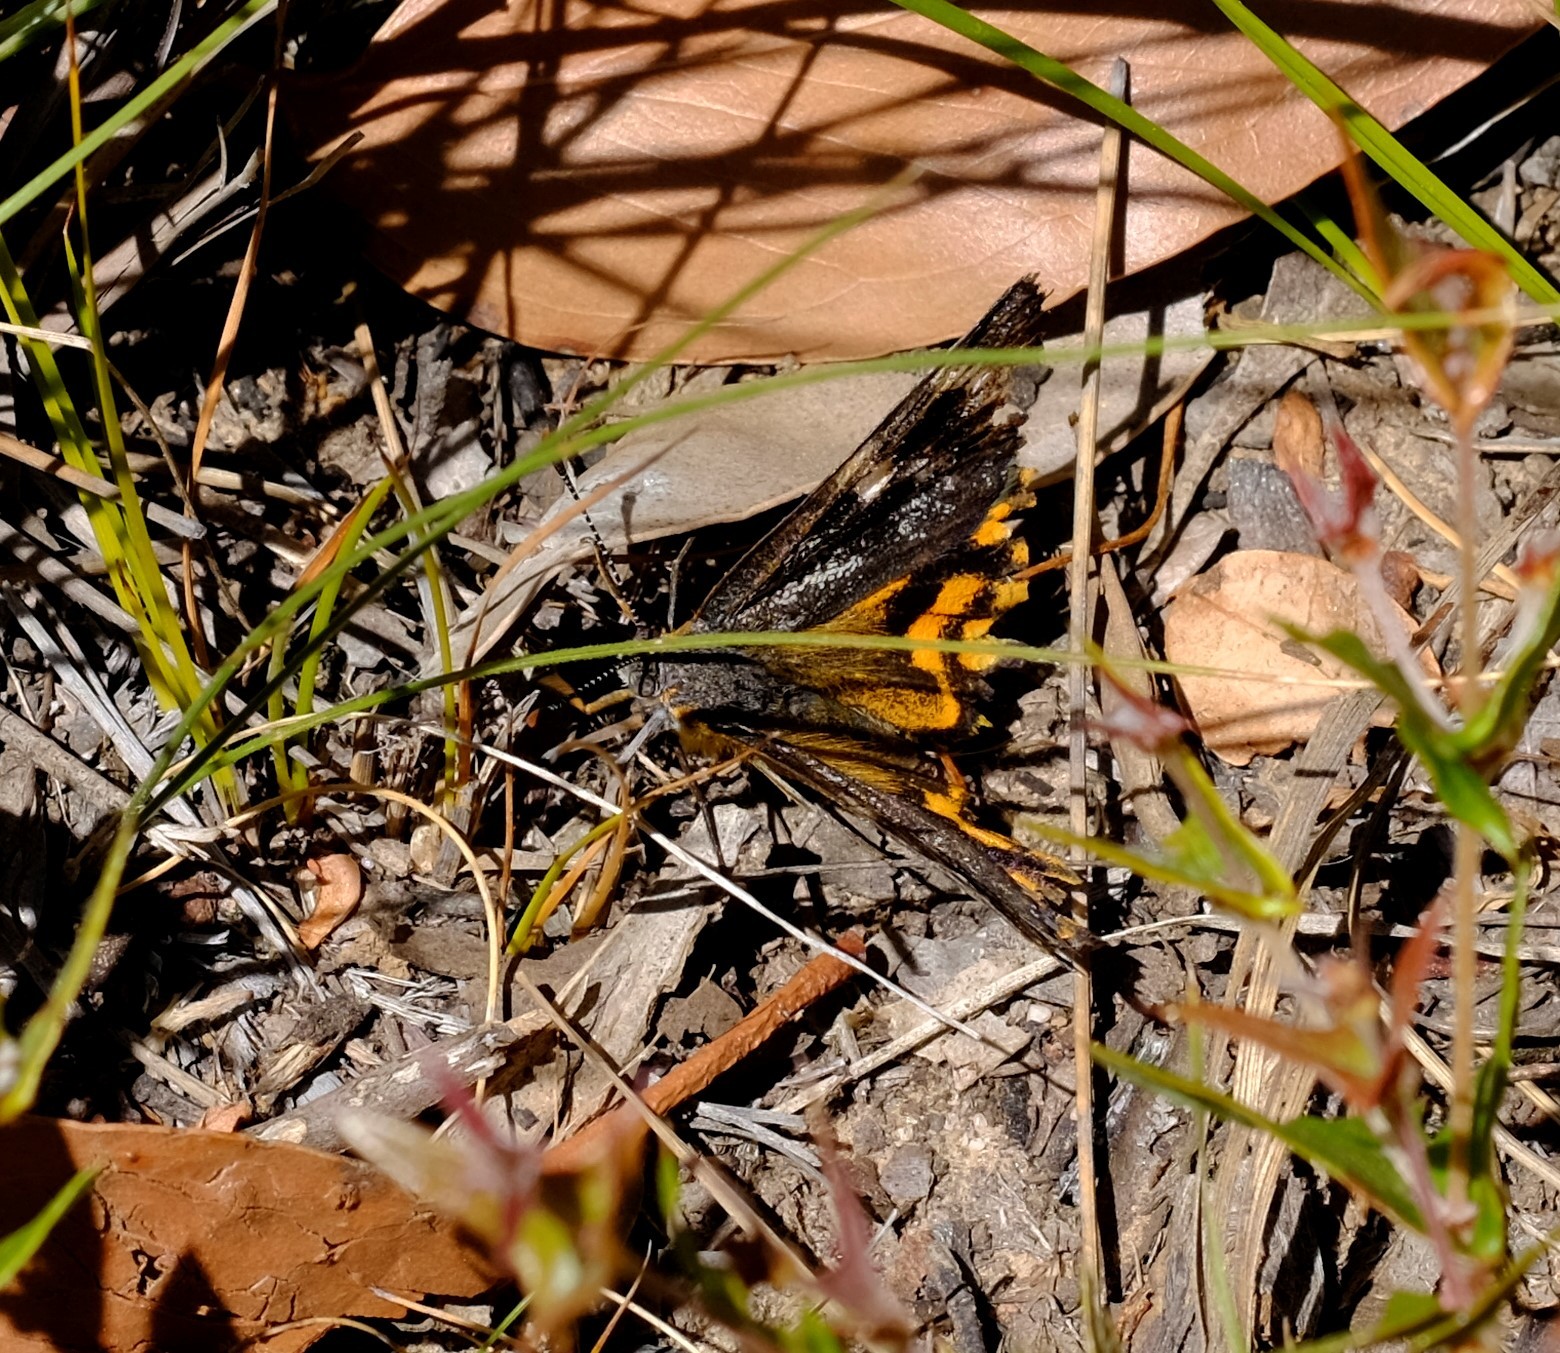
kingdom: Animalia
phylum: Arthropoda
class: Insecta
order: Lepidoptera
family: Castniidae
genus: Synemon
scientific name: Synemon parthenoides
